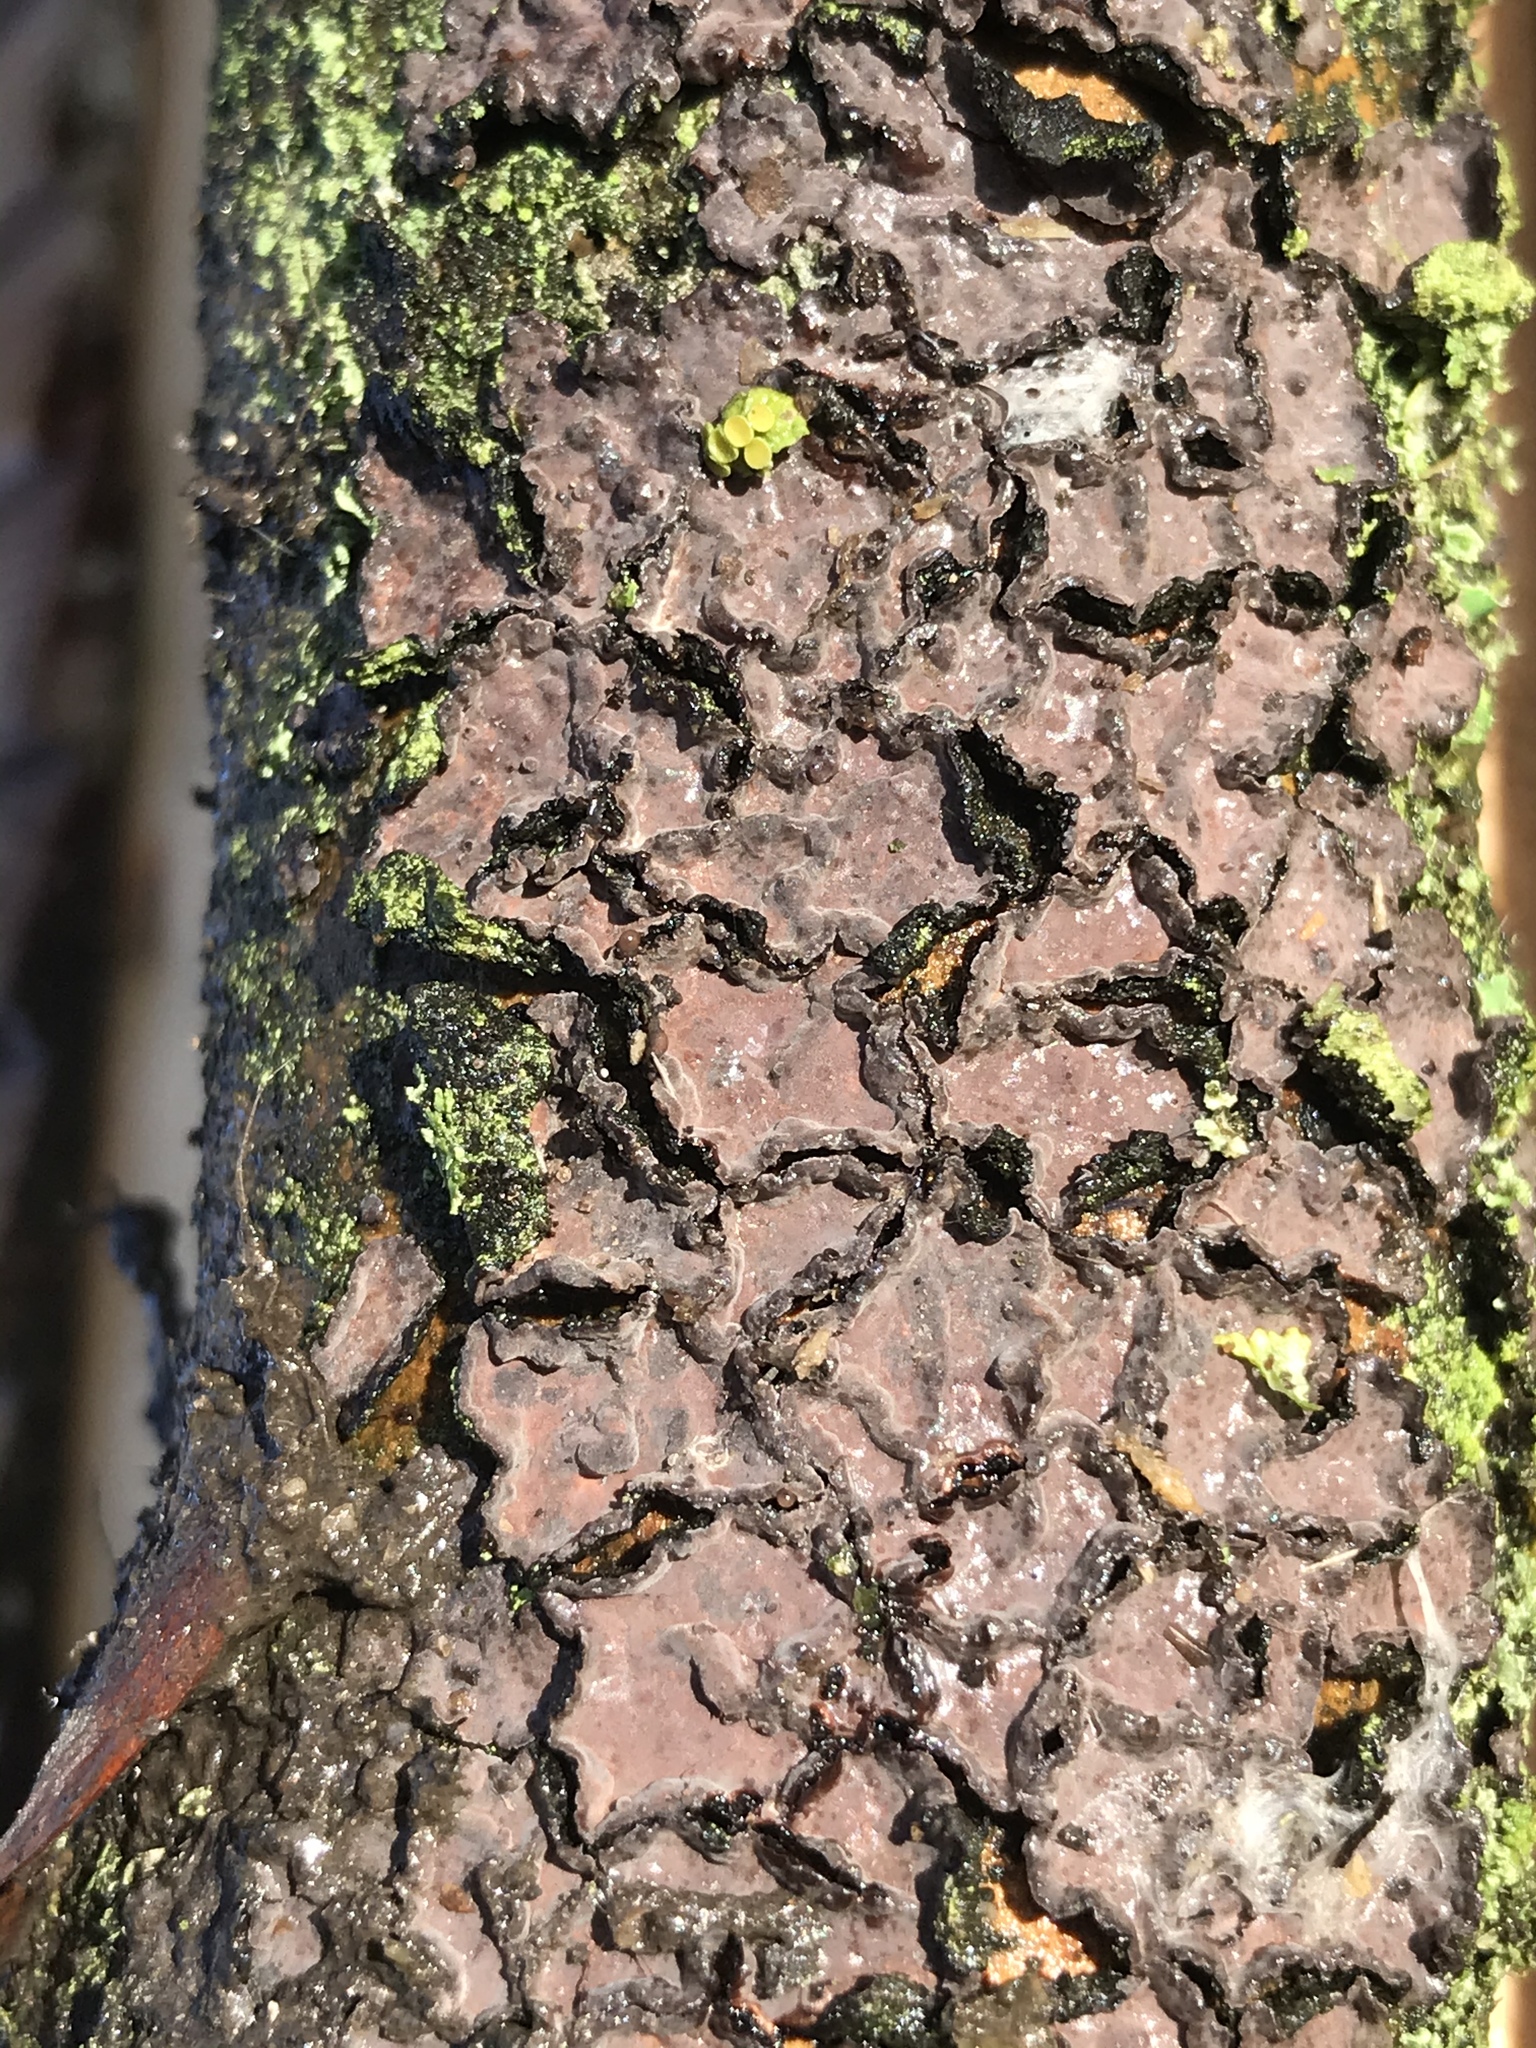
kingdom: Fungi
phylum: Basidiomycota
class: Agaricomycetes
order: Russulales
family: Peniophoraceae
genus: Peniophora
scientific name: Peniophora quercina
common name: Oak crust
